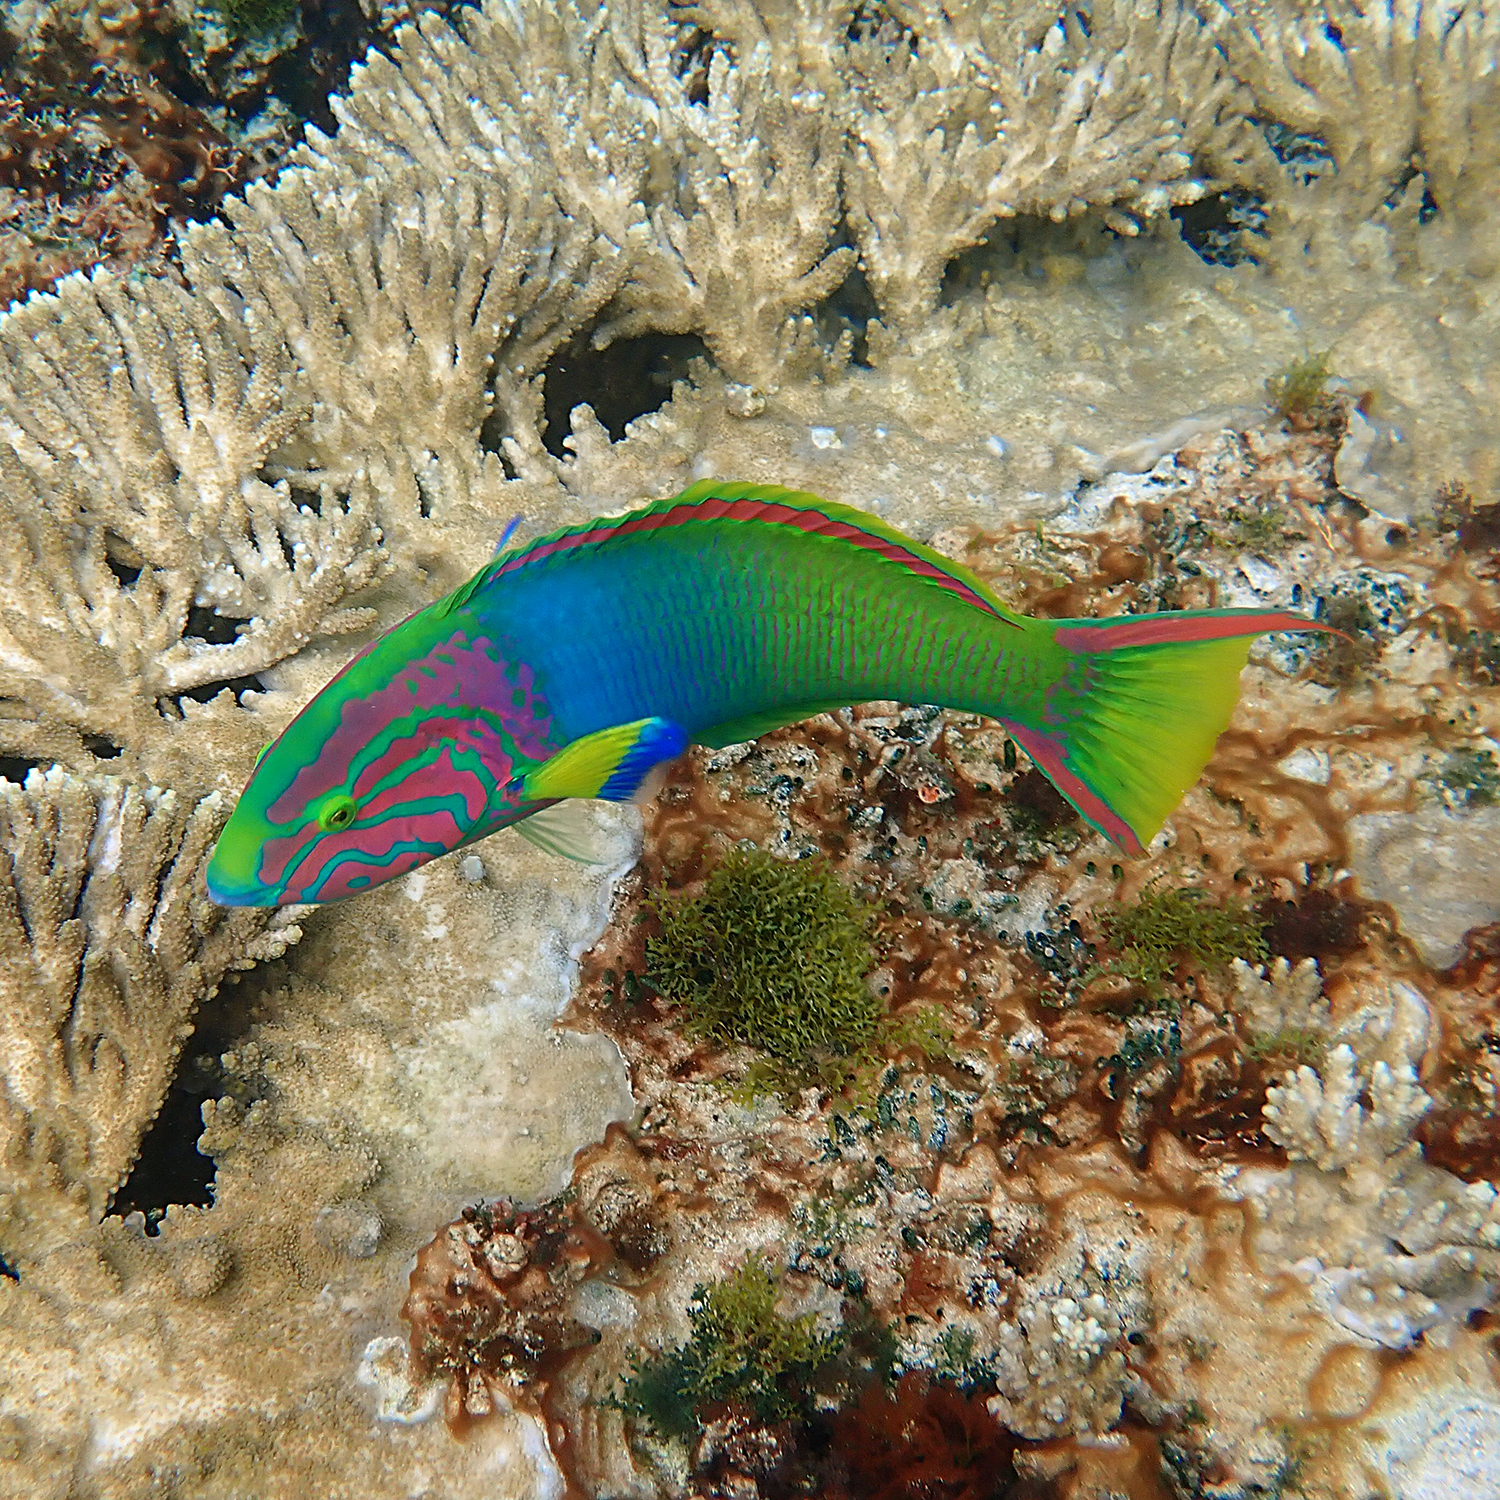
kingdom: Animalia
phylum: Chordata
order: Perciformes
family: Labridae
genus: Thalassoma
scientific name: Thalassoma lutescens
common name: Green moon wrasse
